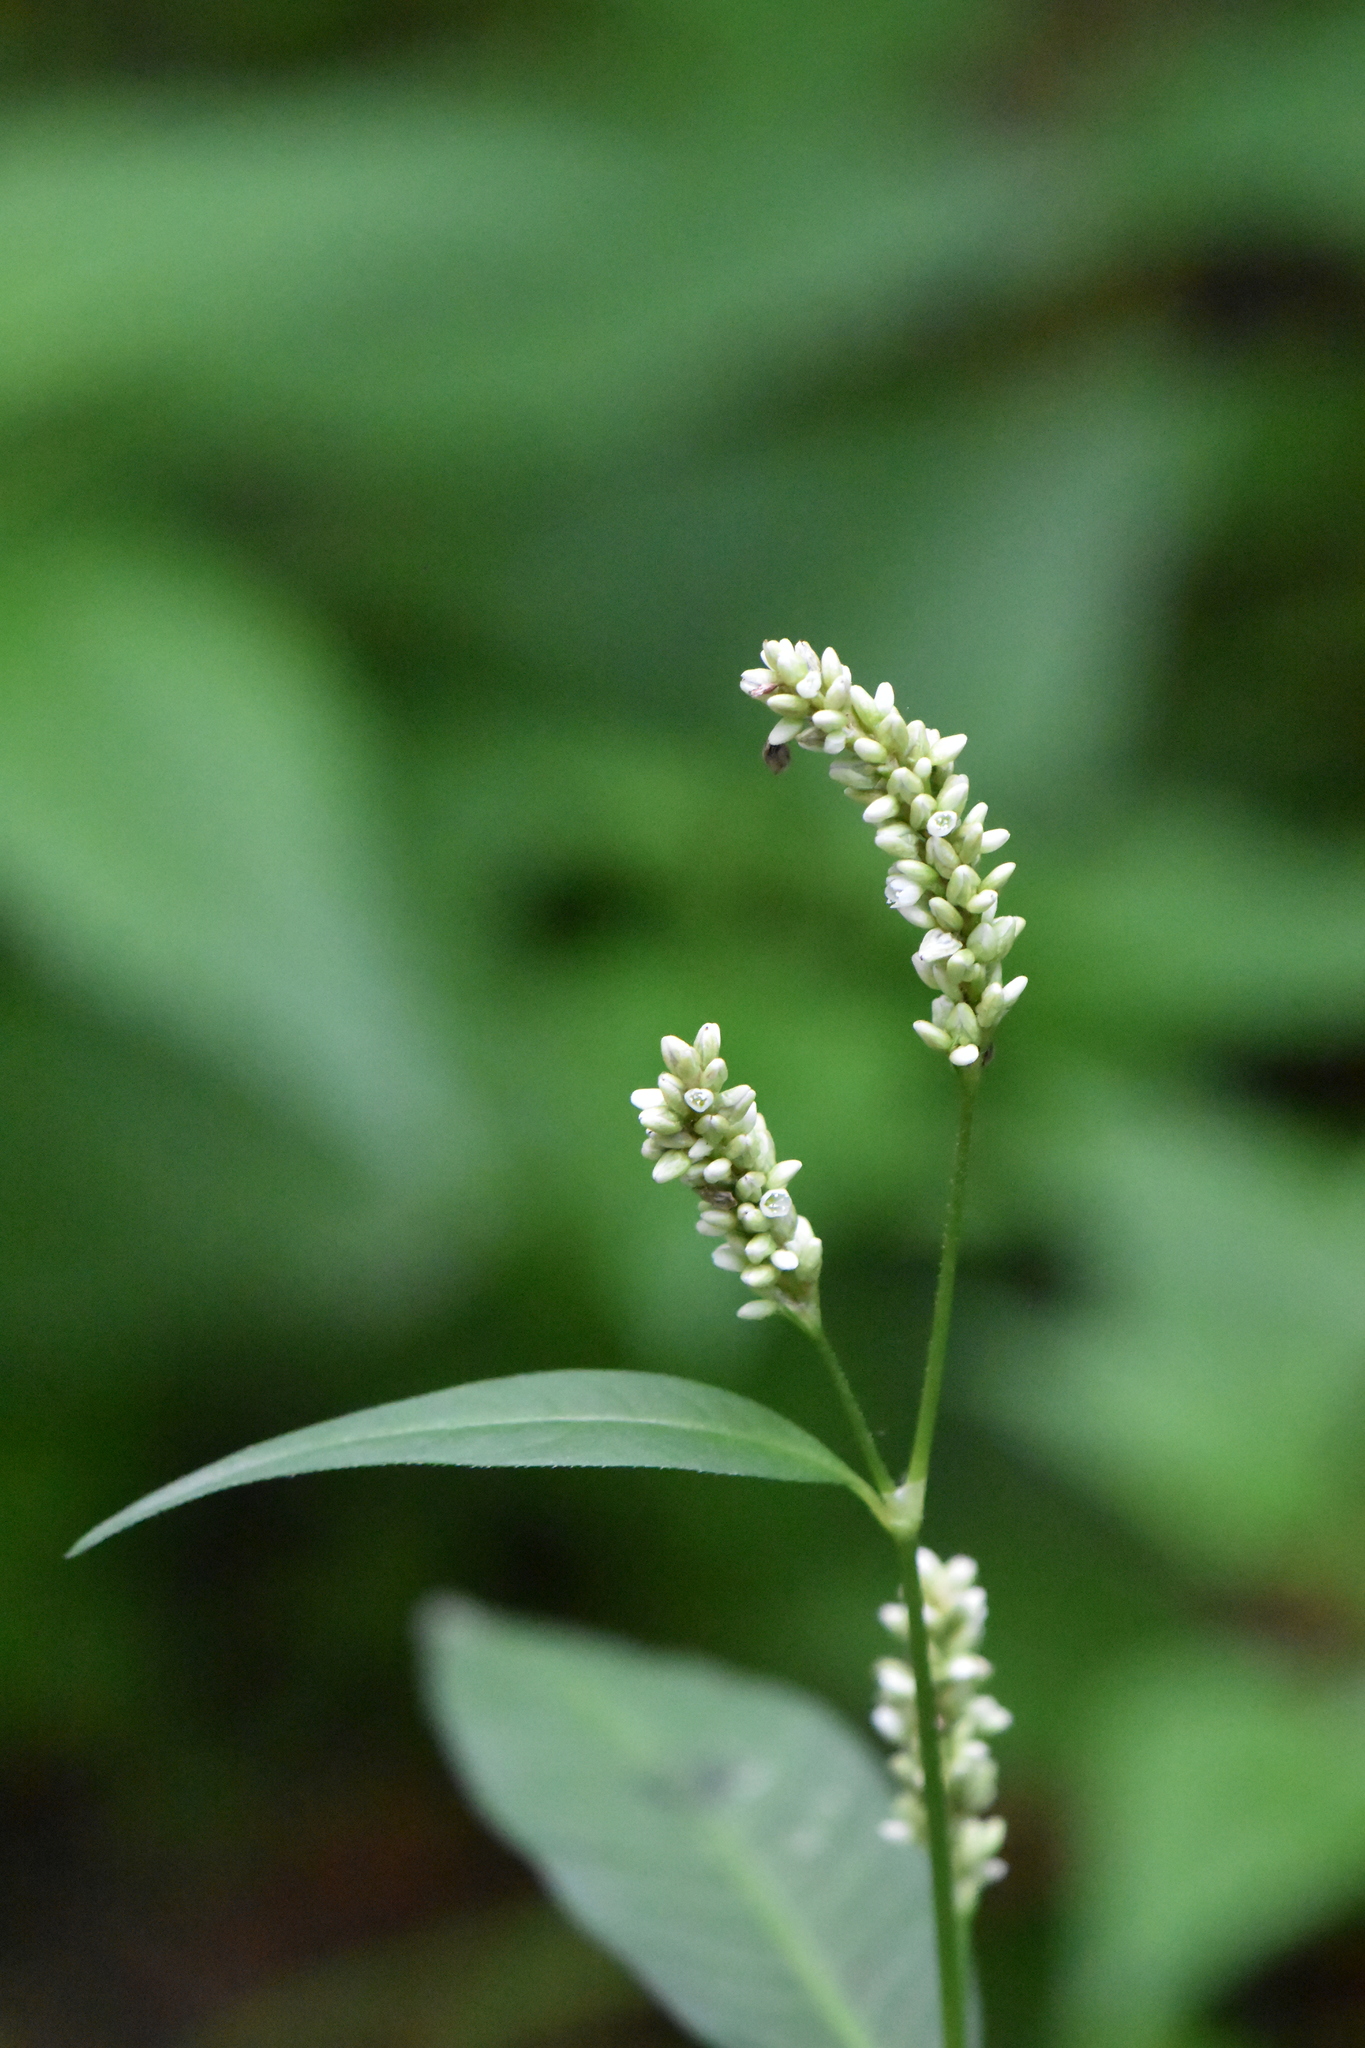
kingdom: Plantae
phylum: Tracheophyta
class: Magnoliopsida
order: Caryophyllales
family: Polygonaceae
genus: Persicaria
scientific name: Persicaria lapathifolia
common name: Curlytop knotweed
